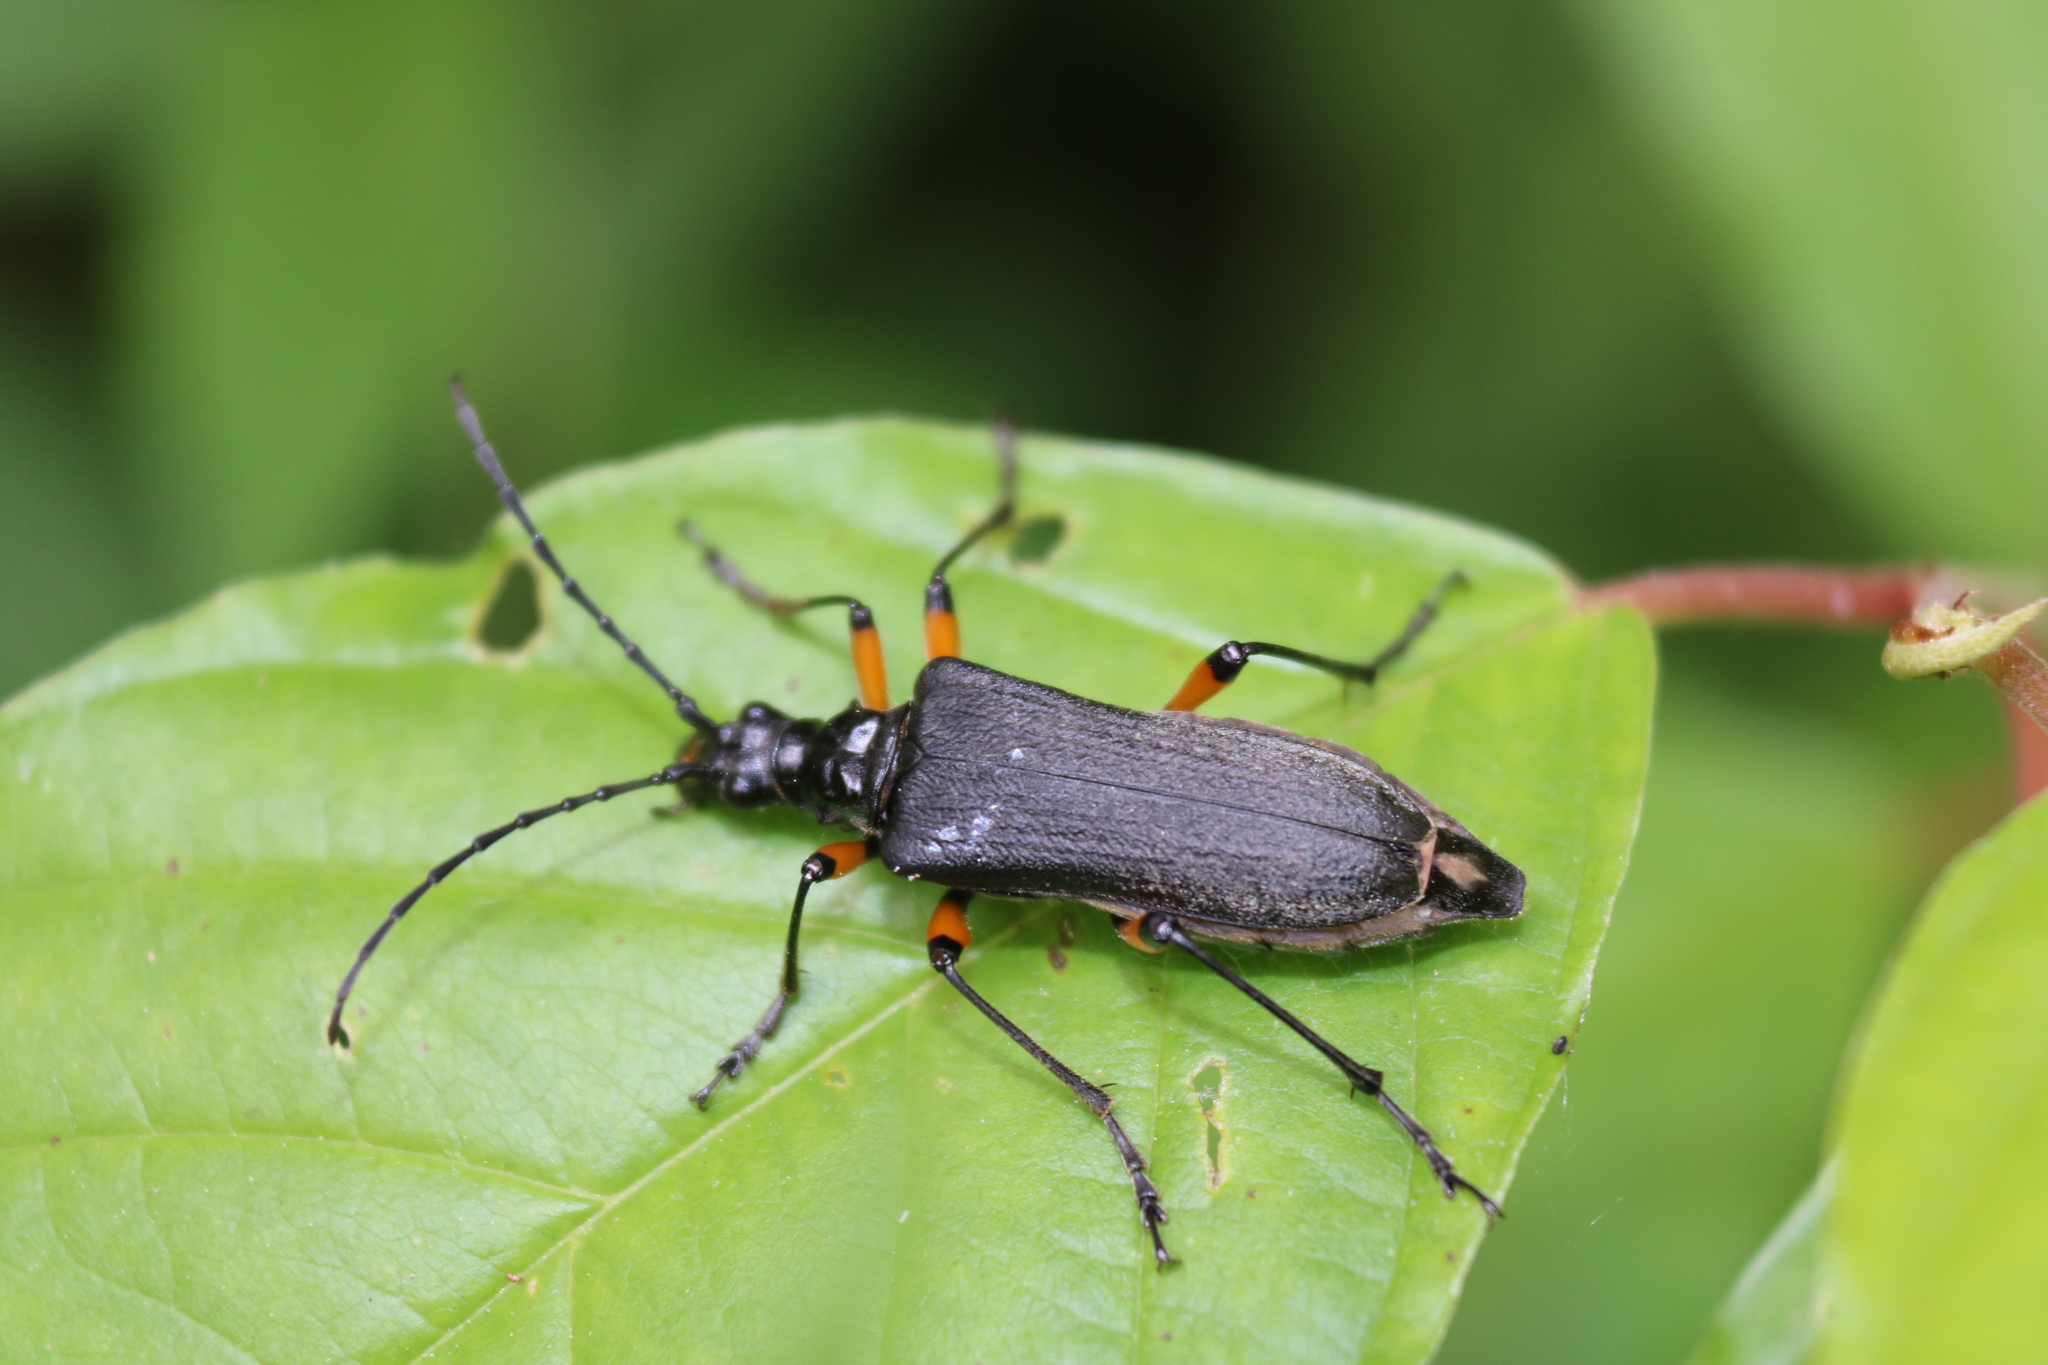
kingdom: Animalia
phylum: Arthropoda
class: Insecta
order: Coleoptera
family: Cerambycidae
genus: Stenocorus
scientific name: Stenocorus schaumii
